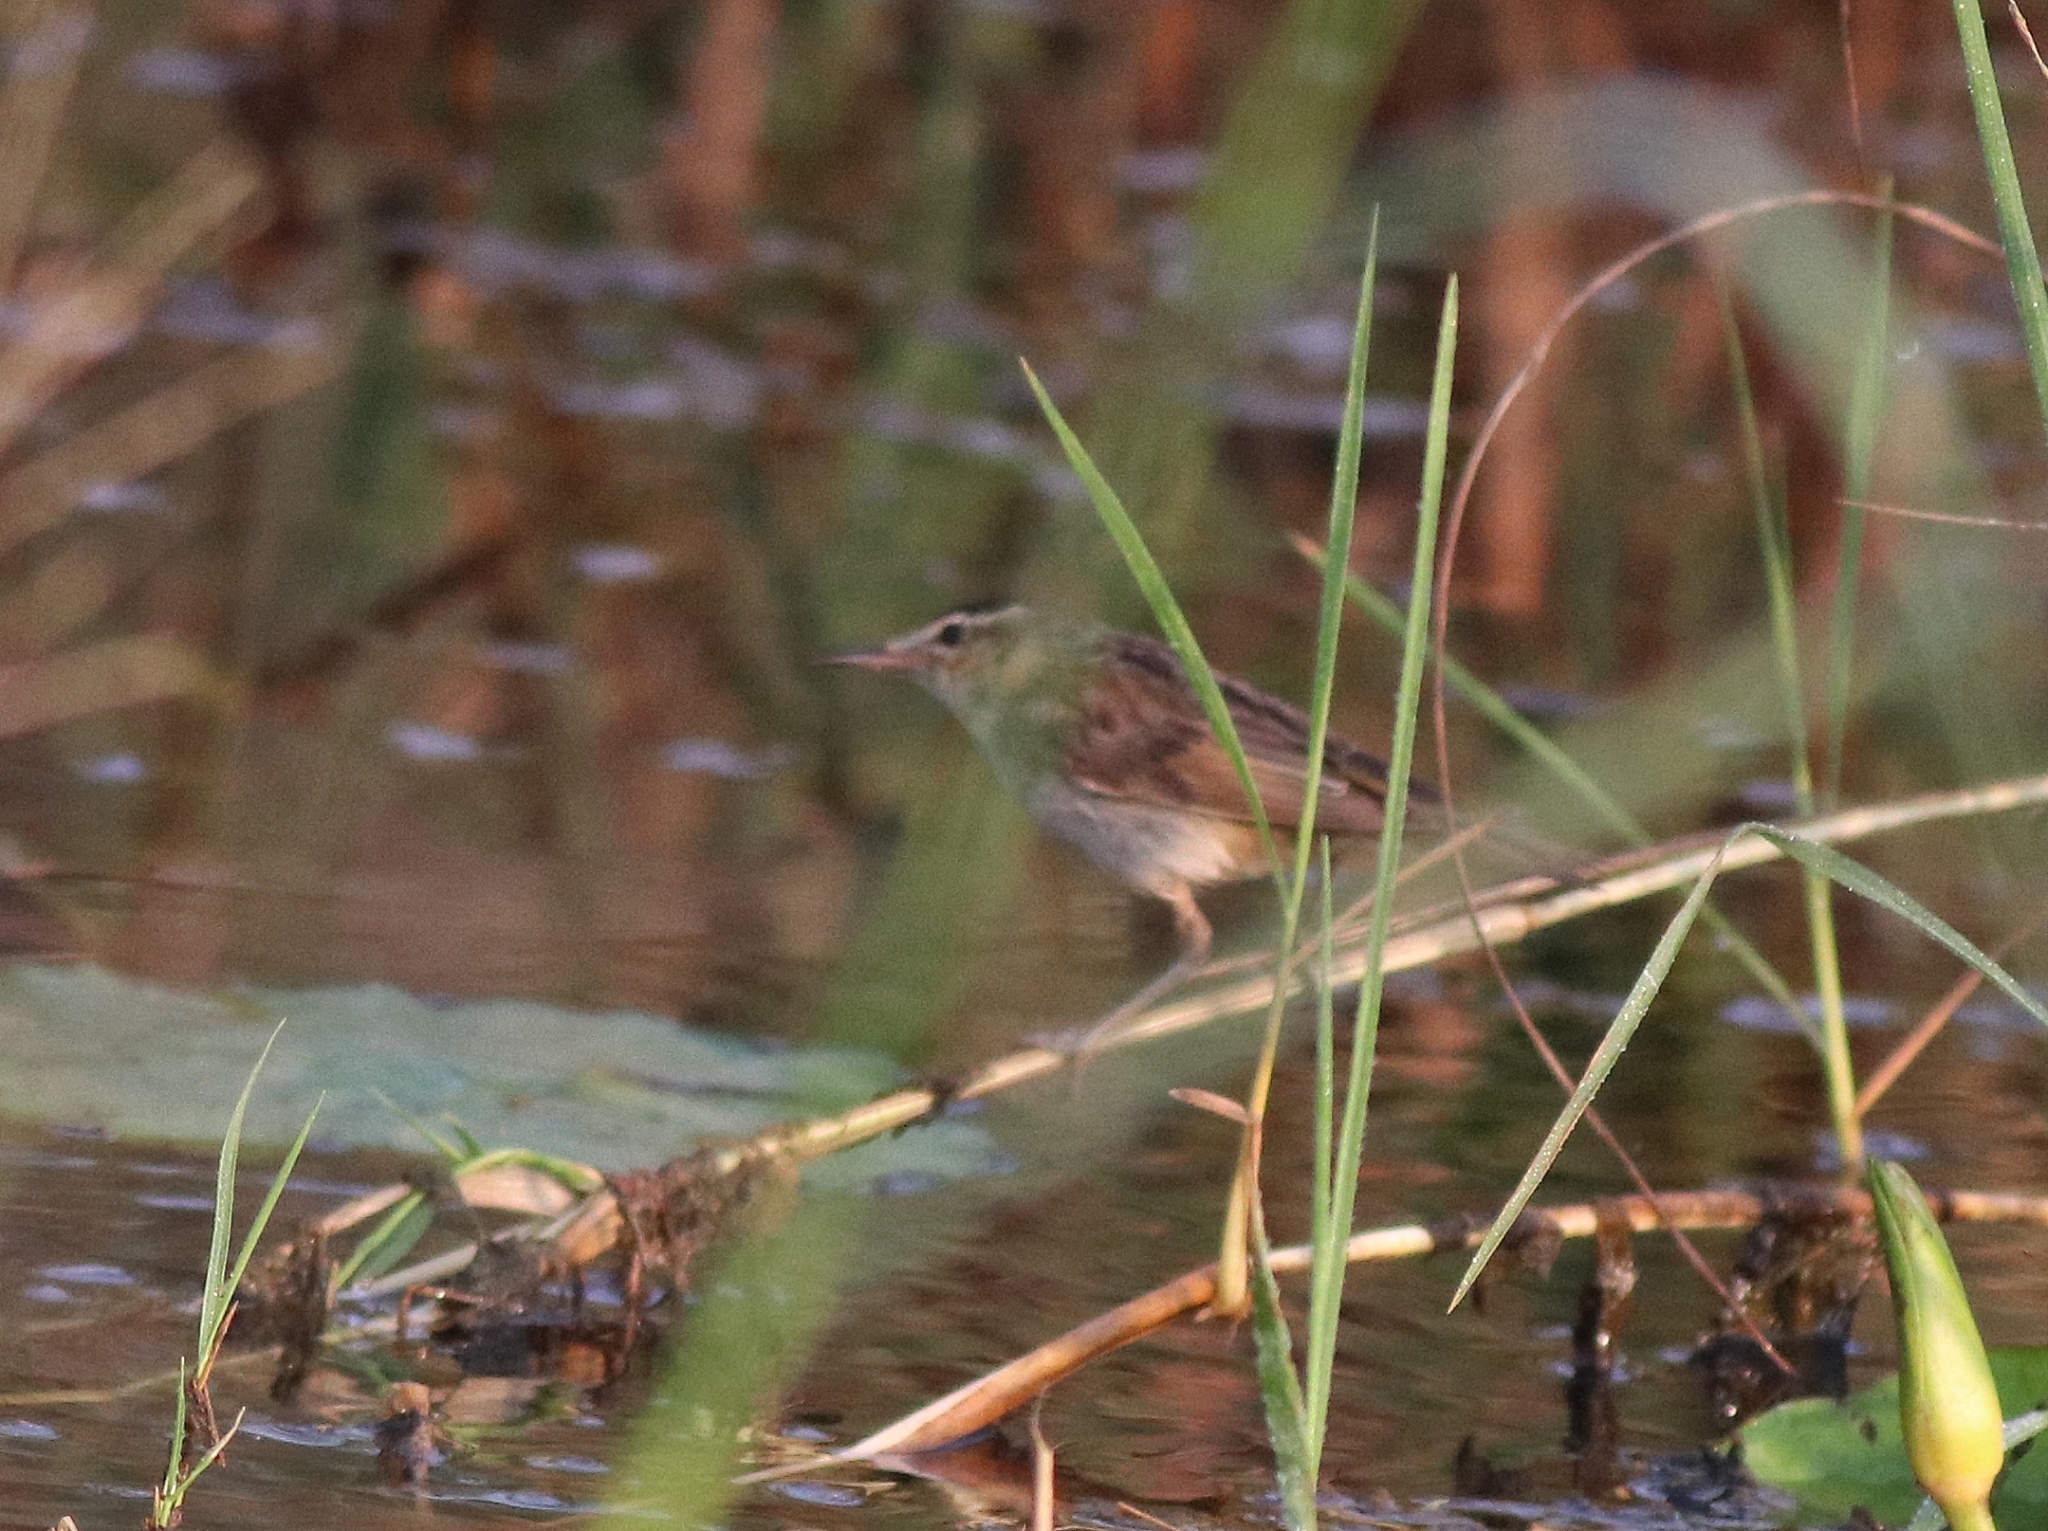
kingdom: Animalia
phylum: Chordata
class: Aves
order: Passeriformes
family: Acrocephalidae
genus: Acrocephalus
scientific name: Acrocephalus schoenobaenus
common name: Sedge warbler
